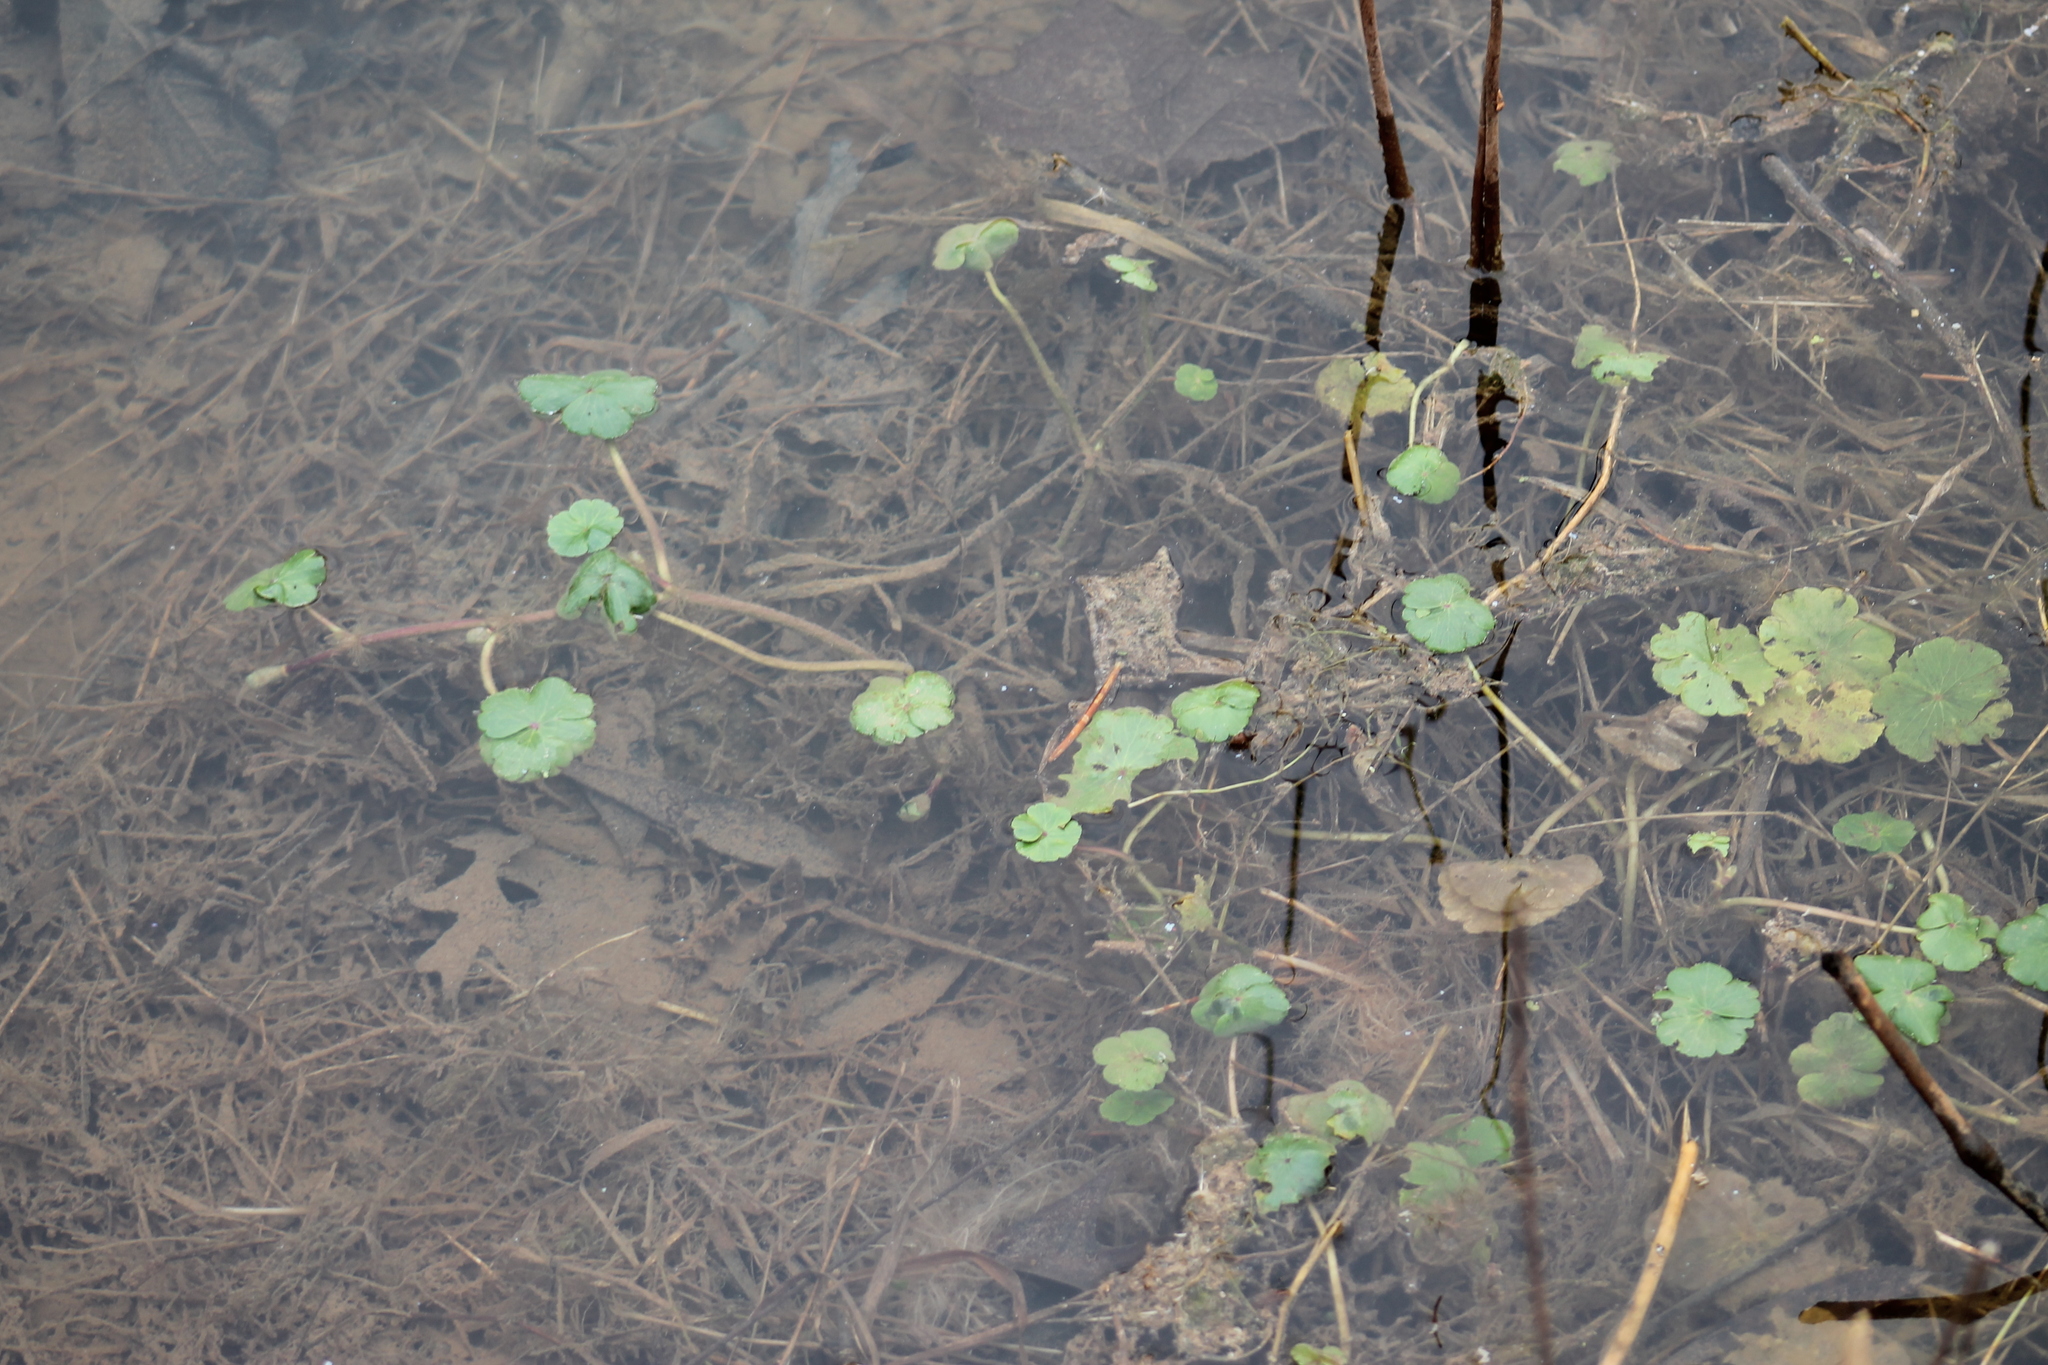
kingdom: Plantae
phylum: Tracheophyta
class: Magnoliopsida
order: Apiales
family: Araliaceae
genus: Hydrocotyle
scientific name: Hydrocotyle ranunculoides
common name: Floating pennywort
